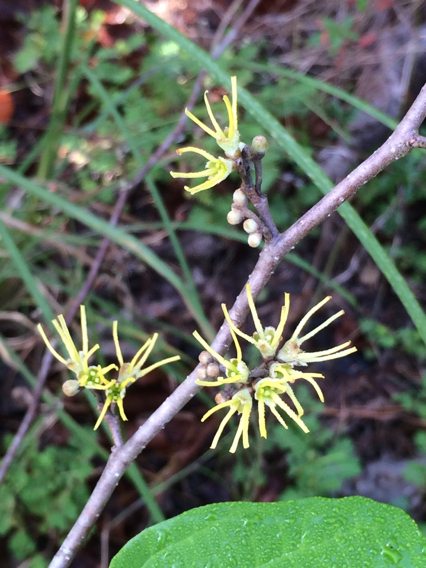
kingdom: Plantae
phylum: Tracheophyta
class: Magnoliopsida
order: Saxifragales
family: Hamamelidaceae
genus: Hamamelis
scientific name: Hamamelis virginiana
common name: Witch-hazel
